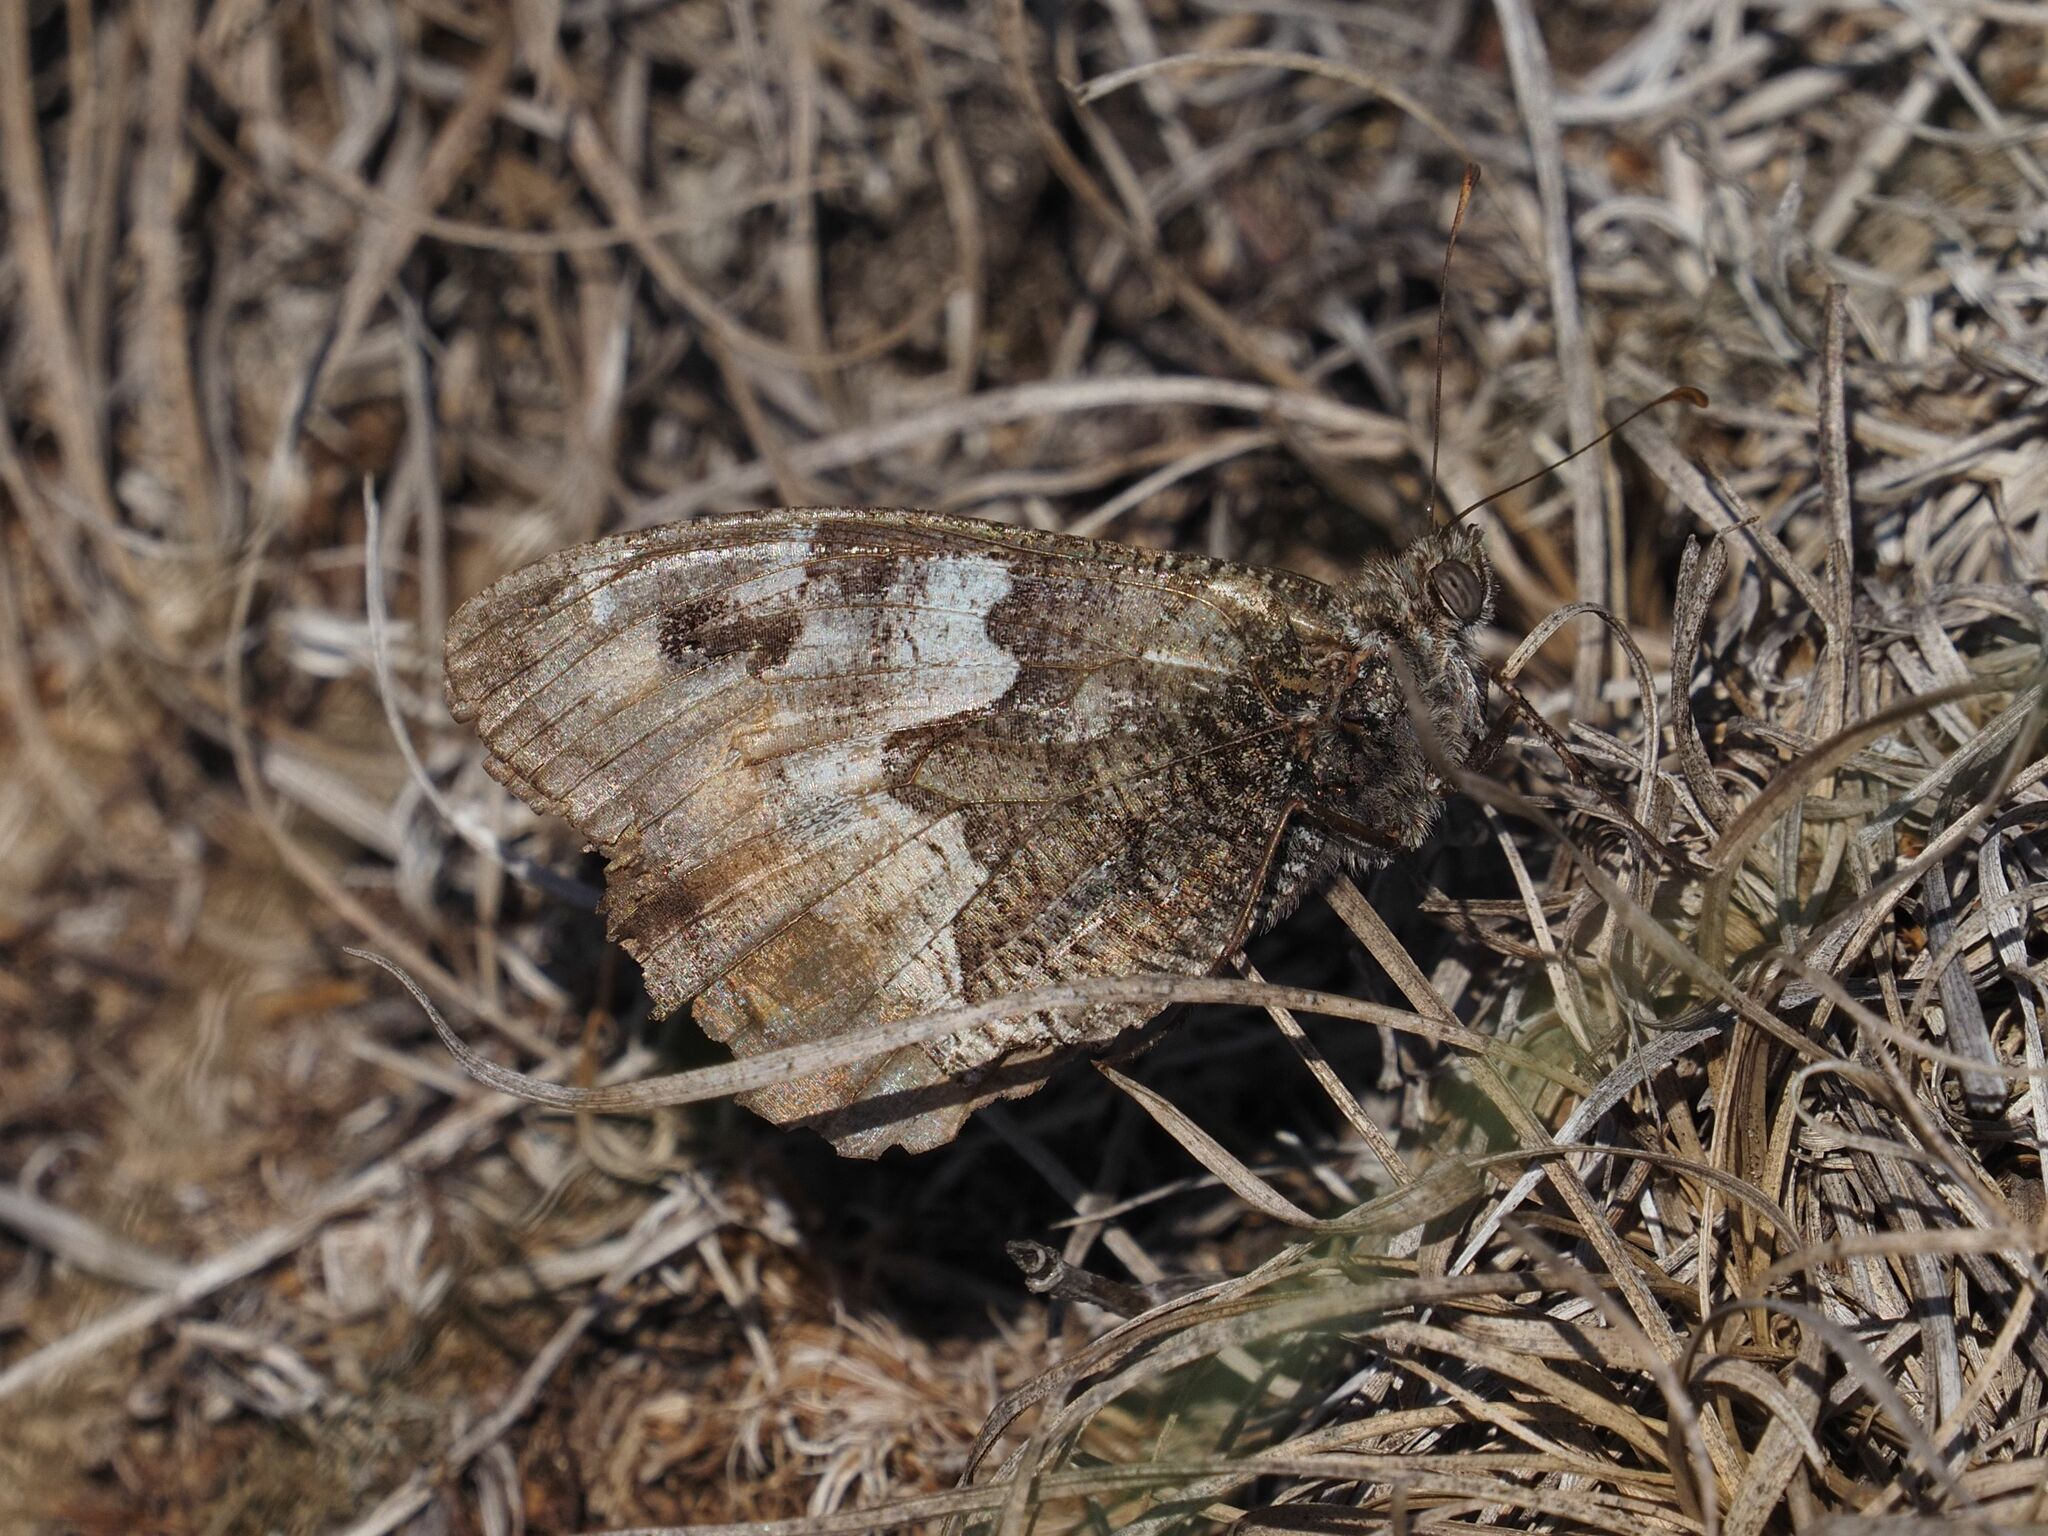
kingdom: Animalia
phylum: Arthropoda
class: Insecta
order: Lepidoptera
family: Nymphalidae
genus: Hipparchia
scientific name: Hipparchia semele
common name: Grayling
